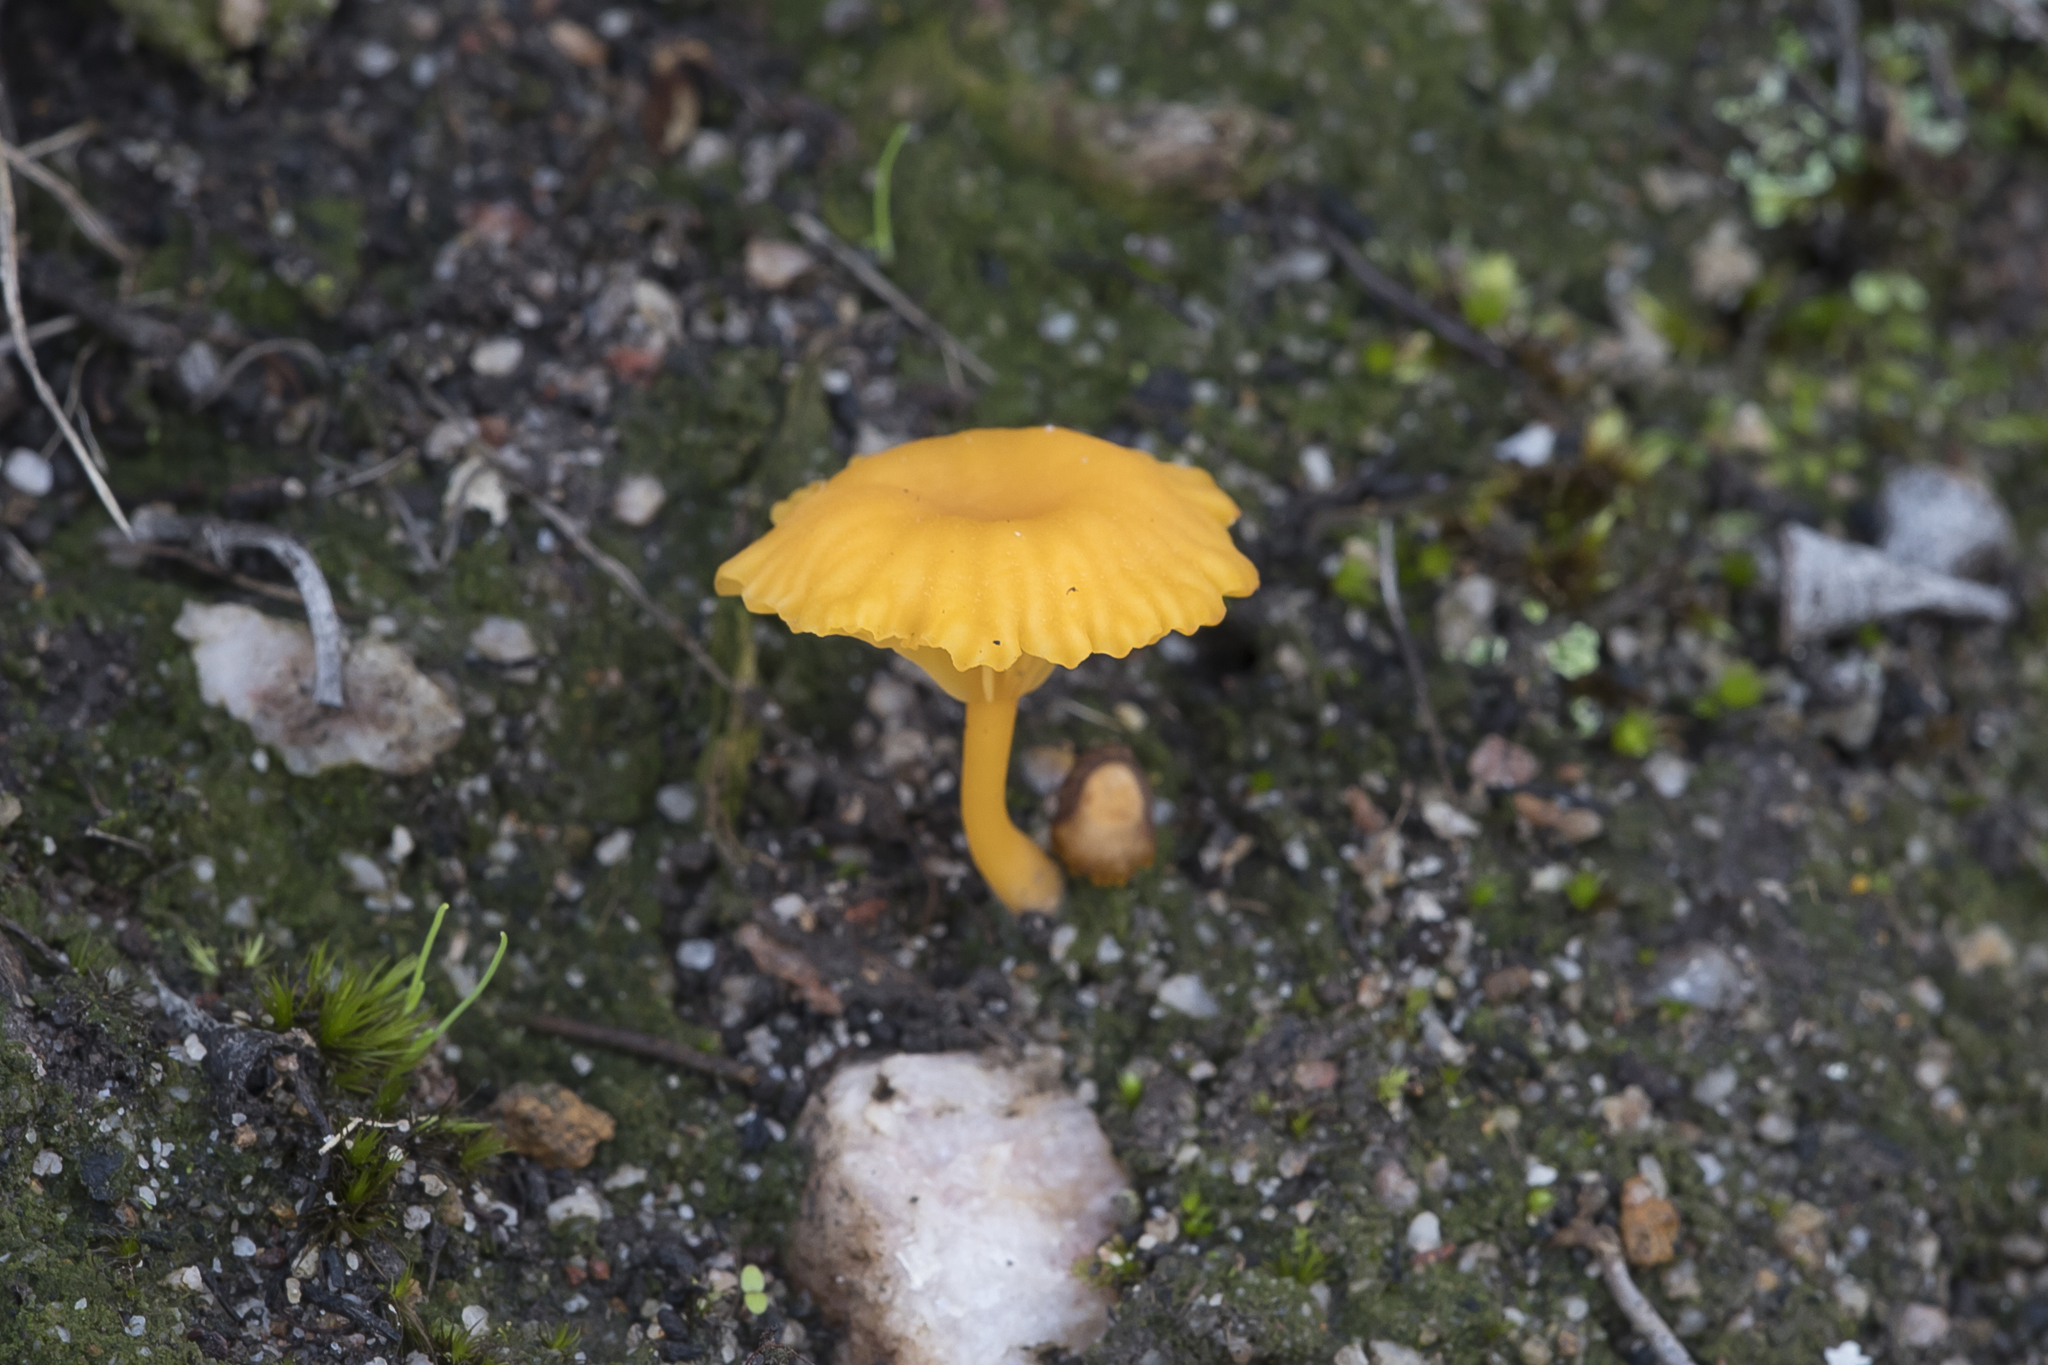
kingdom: Fungi
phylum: Basidiomycota
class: Agaricomycetes
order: Agaricales
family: Hygrophoraceae
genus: Lichenomphalia
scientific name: Lichenomphalia chromacea
